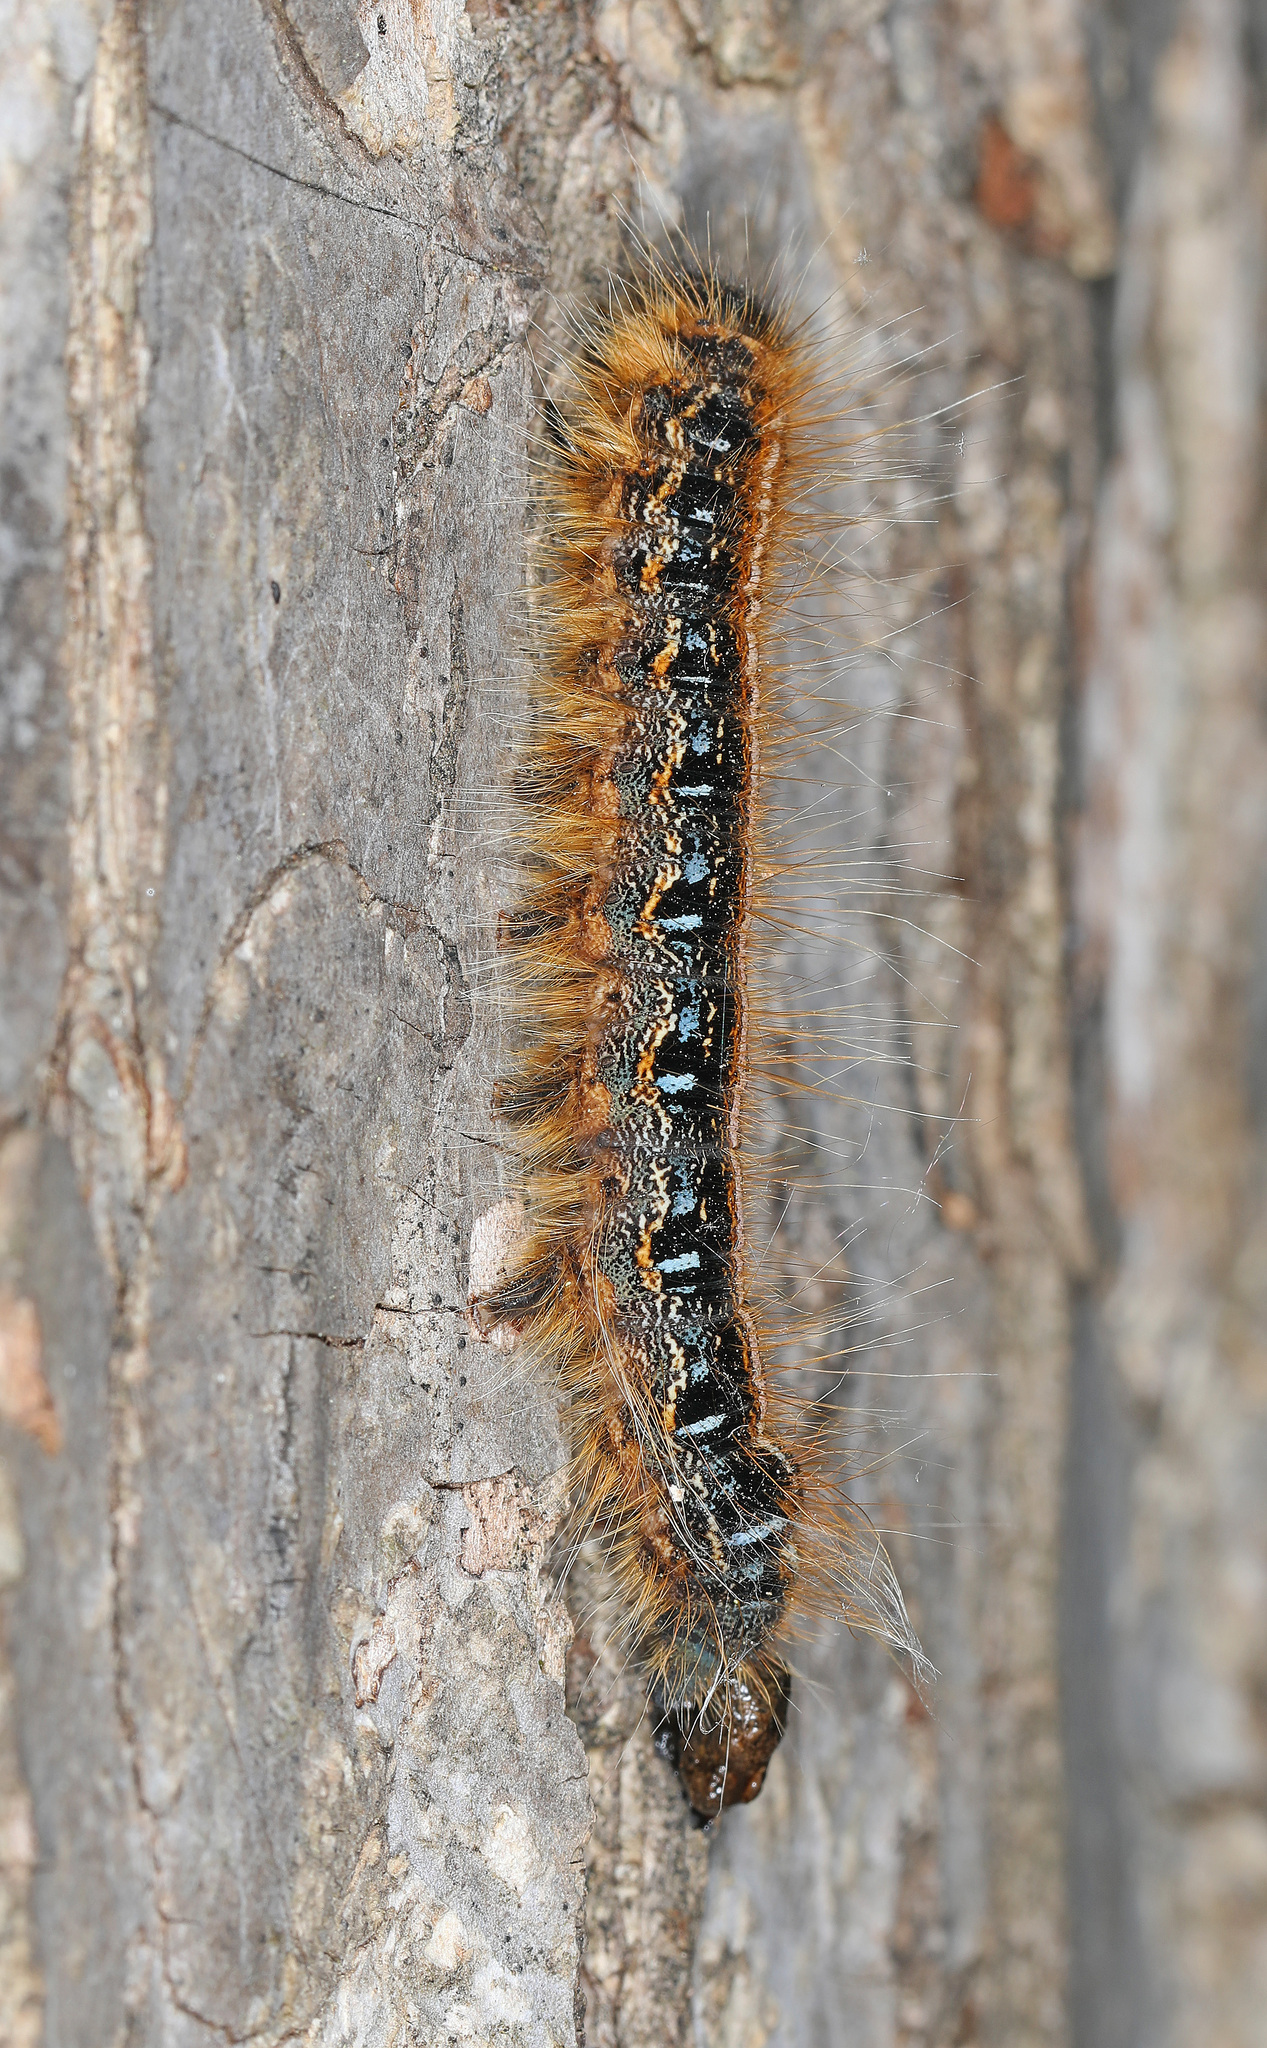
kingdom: Animalia
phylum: Arthropoda
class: Insecta
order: Lepidoptera
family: Lasiocampidae
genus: Malacosoma
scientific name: Malacosoma americana
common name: Eastern tent caterpillar moth
